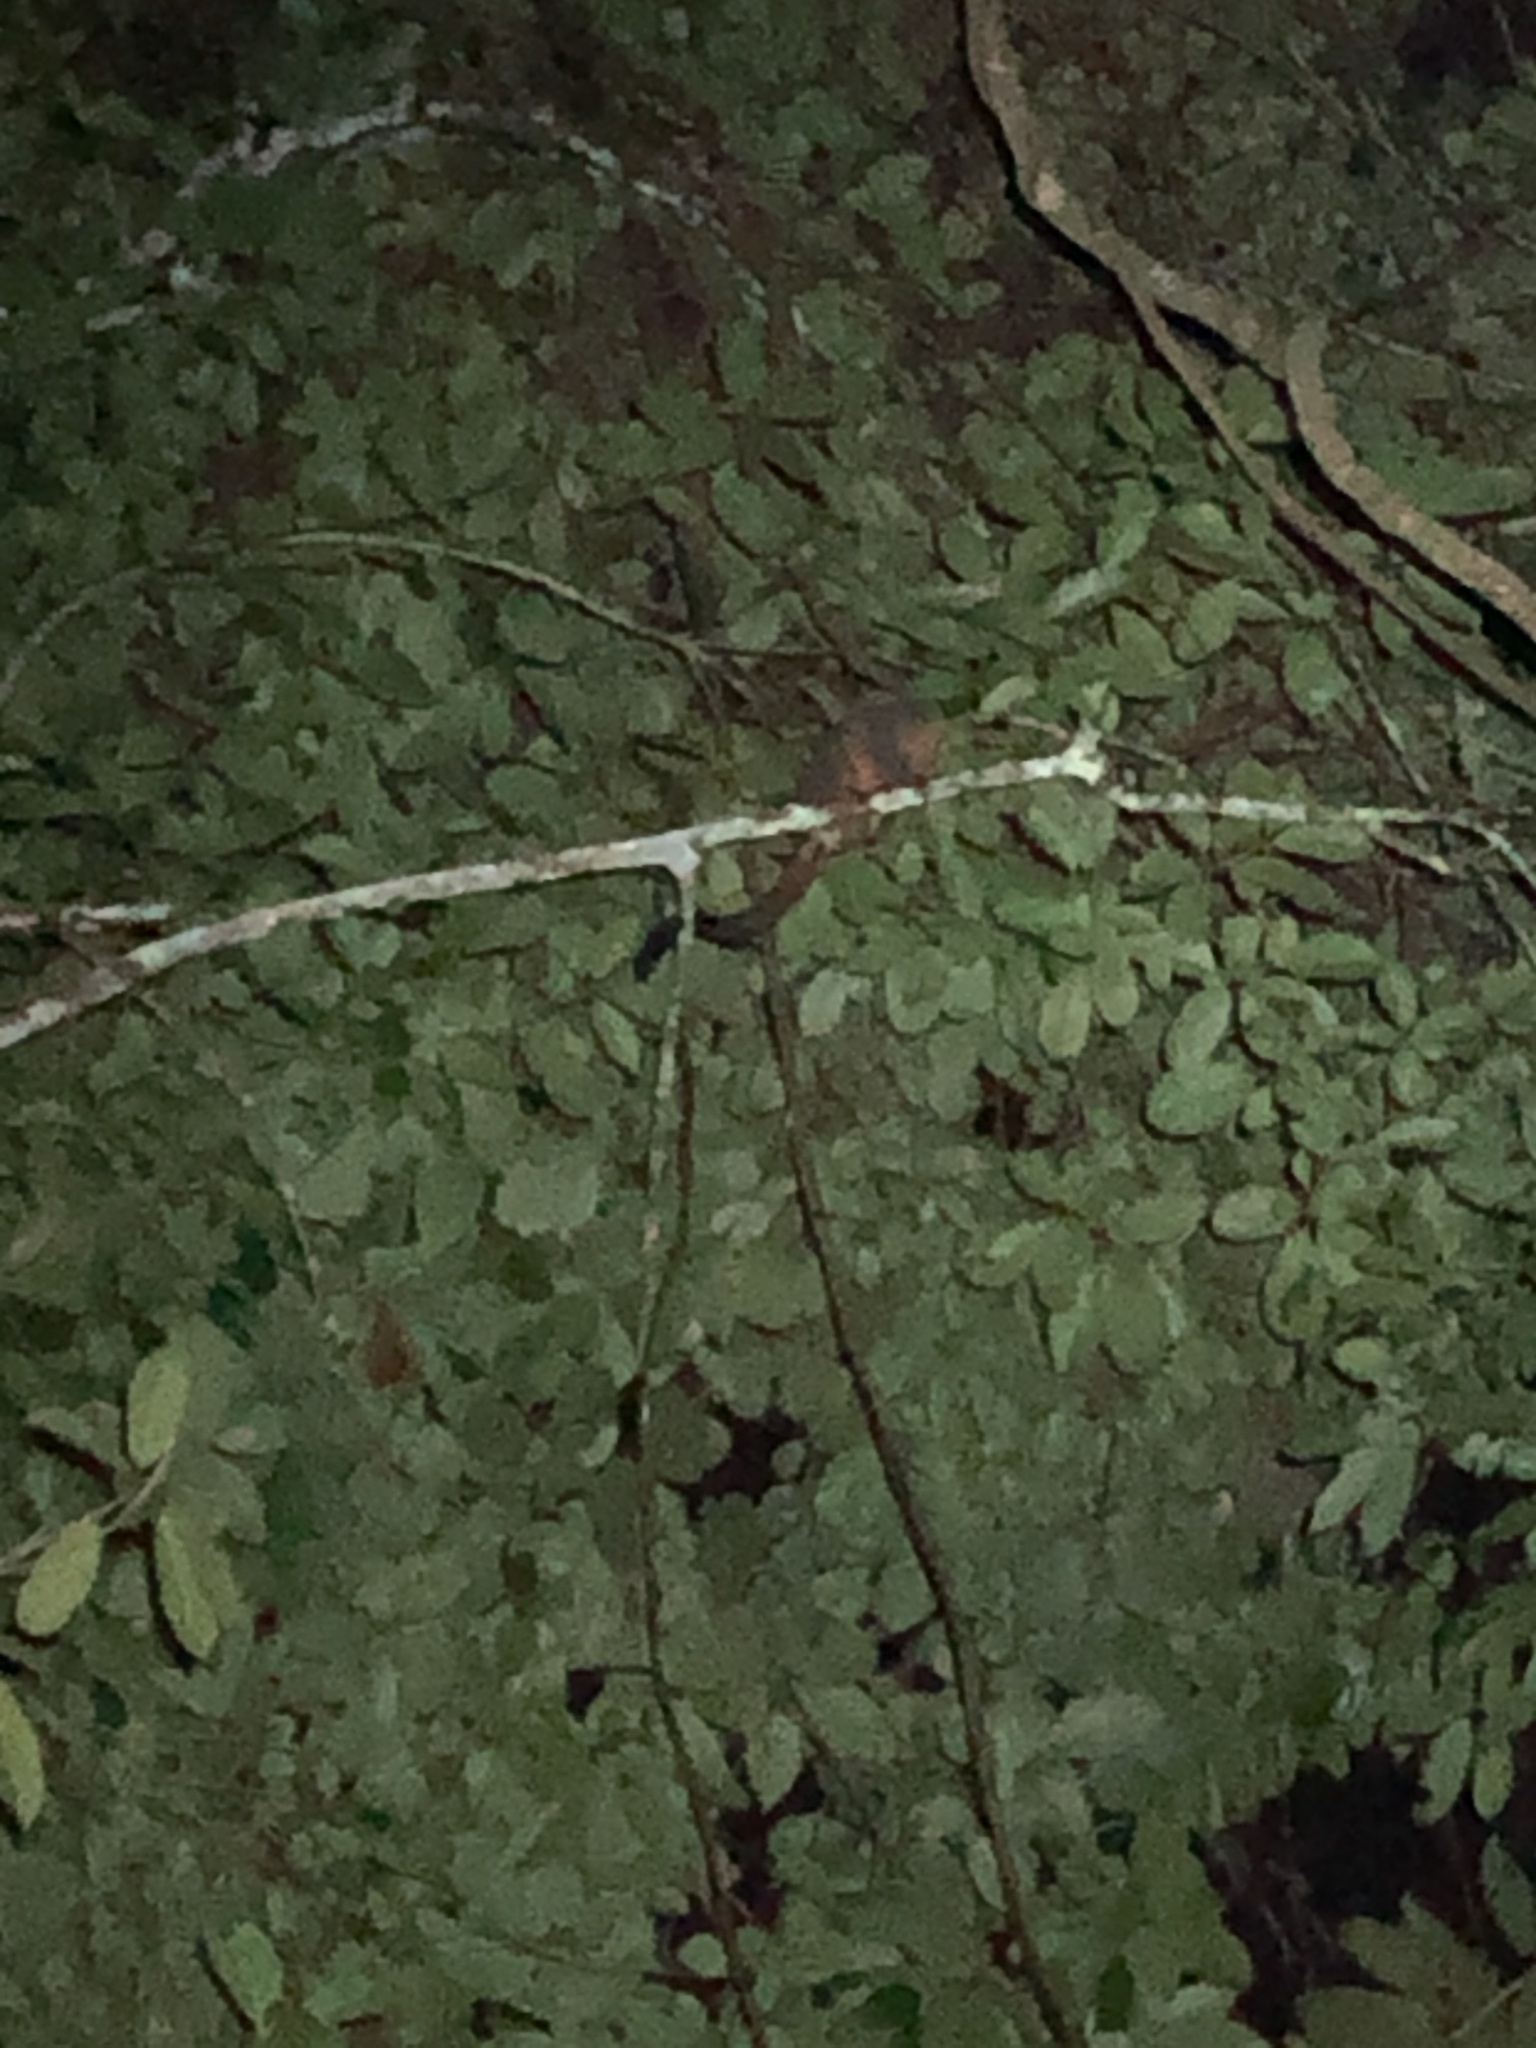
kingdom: Animalia
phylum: Chordata
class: Mammalia
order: Primates
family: Aotidae
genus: Aotus
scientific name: Aotus nigriceps
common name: Black-headed night monkey
